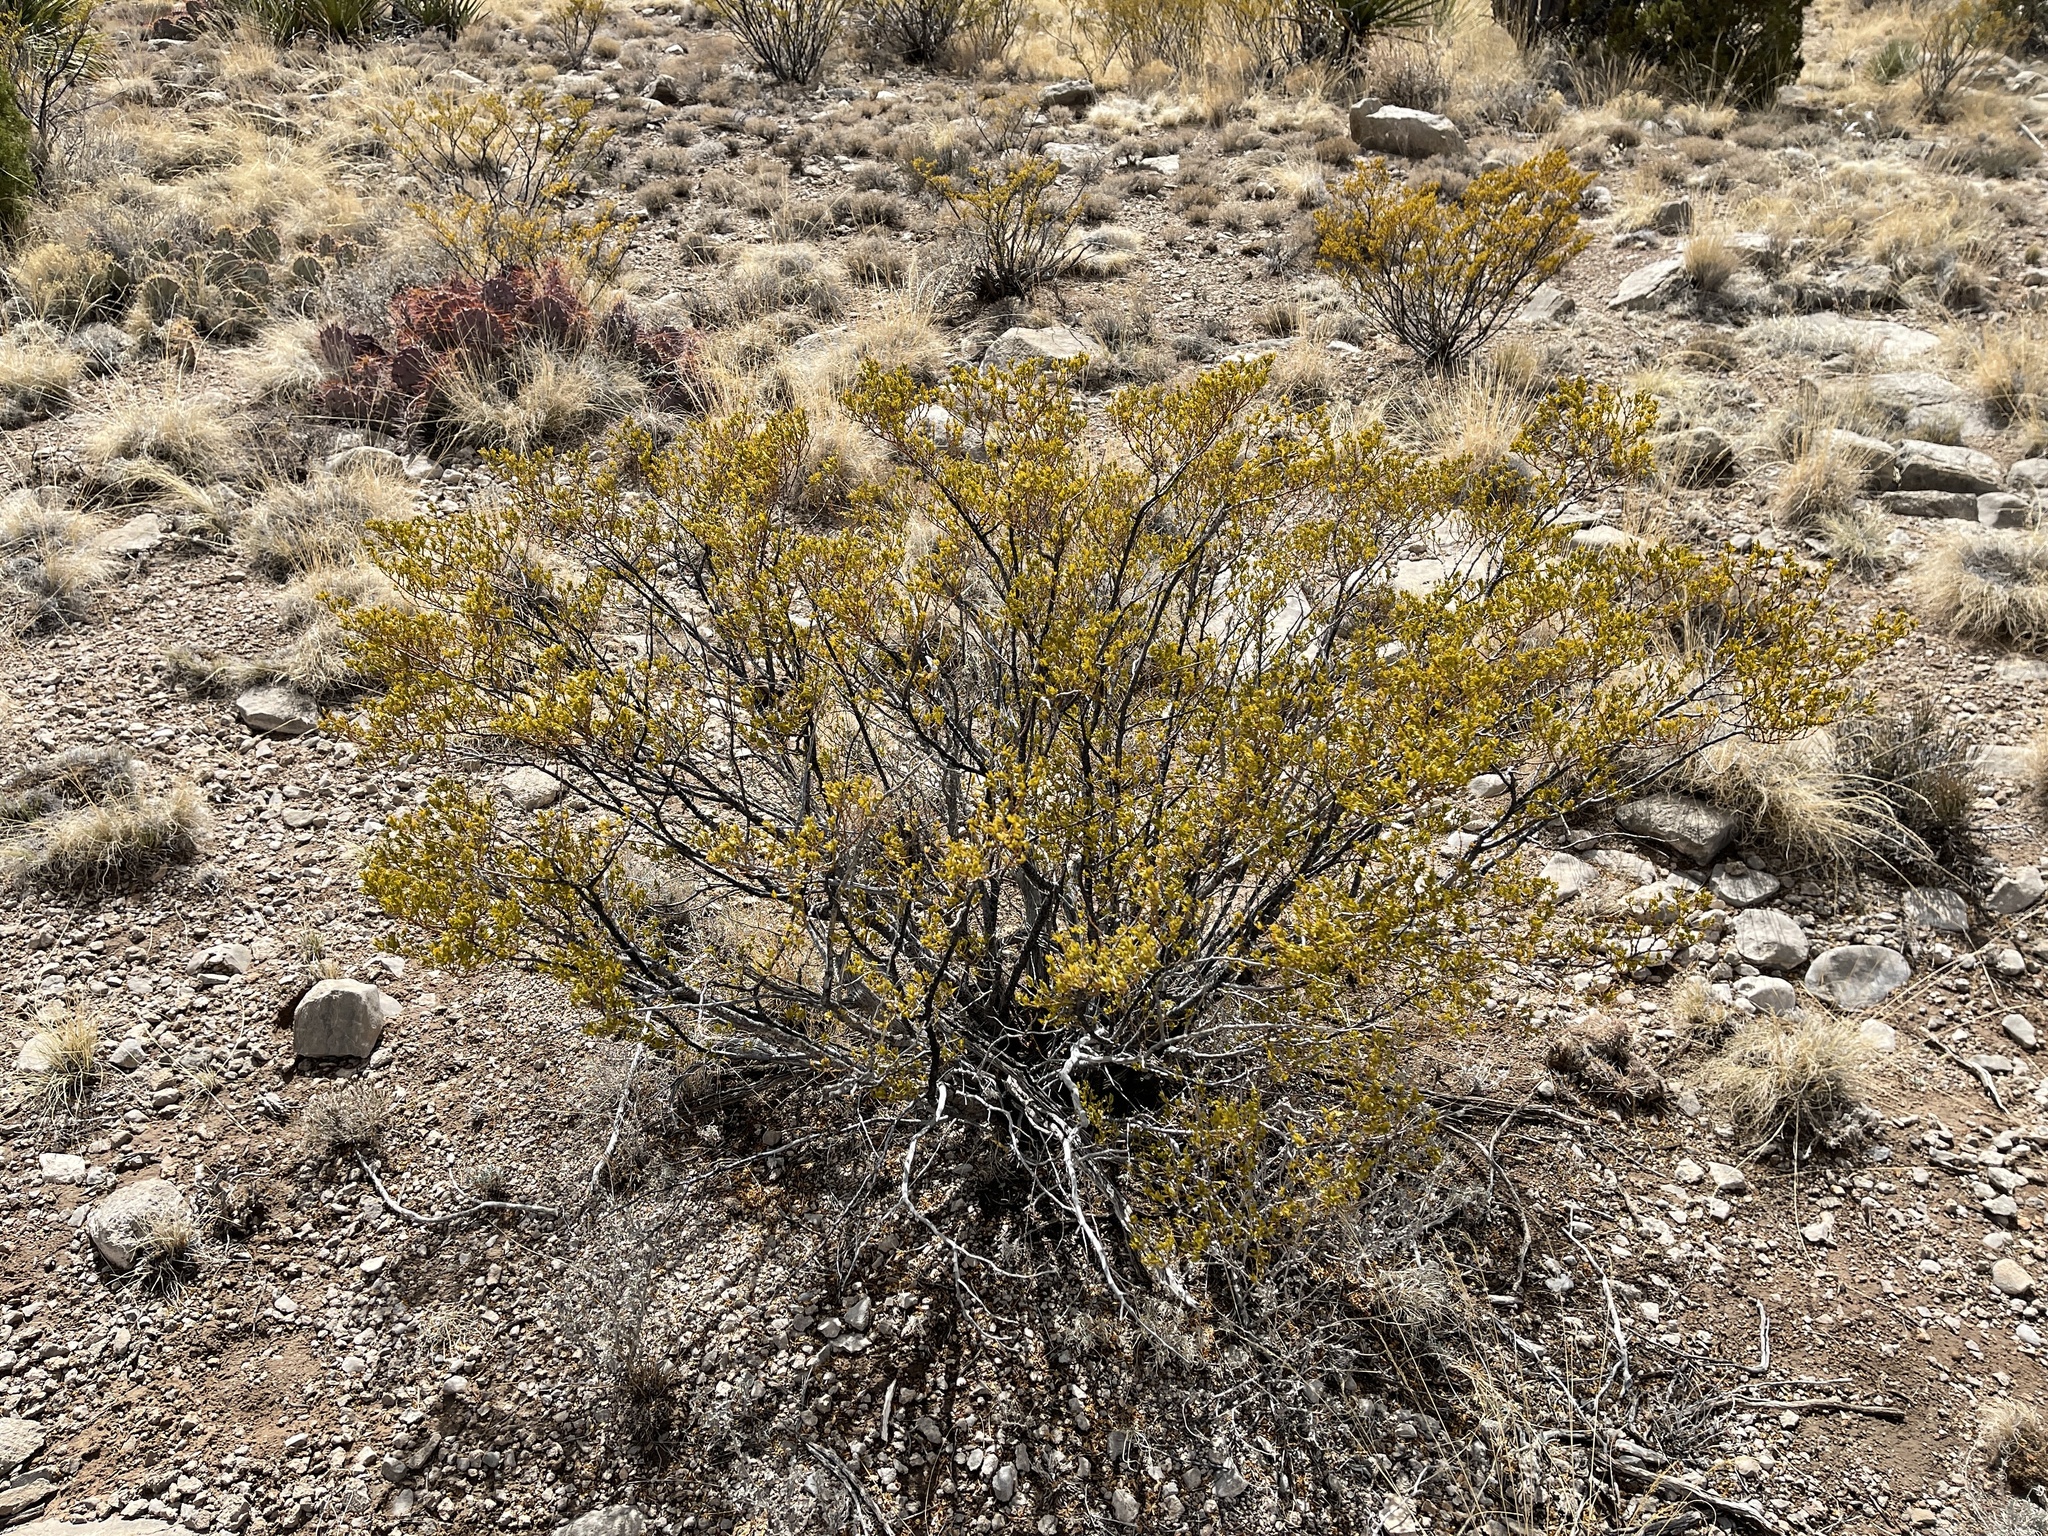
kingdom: Plantae
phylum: Tracheophyta
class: Magnoliopsida
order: Zygophyllales
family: Zygophyllaceae
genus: Larrea
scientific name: Larrea tridentata
